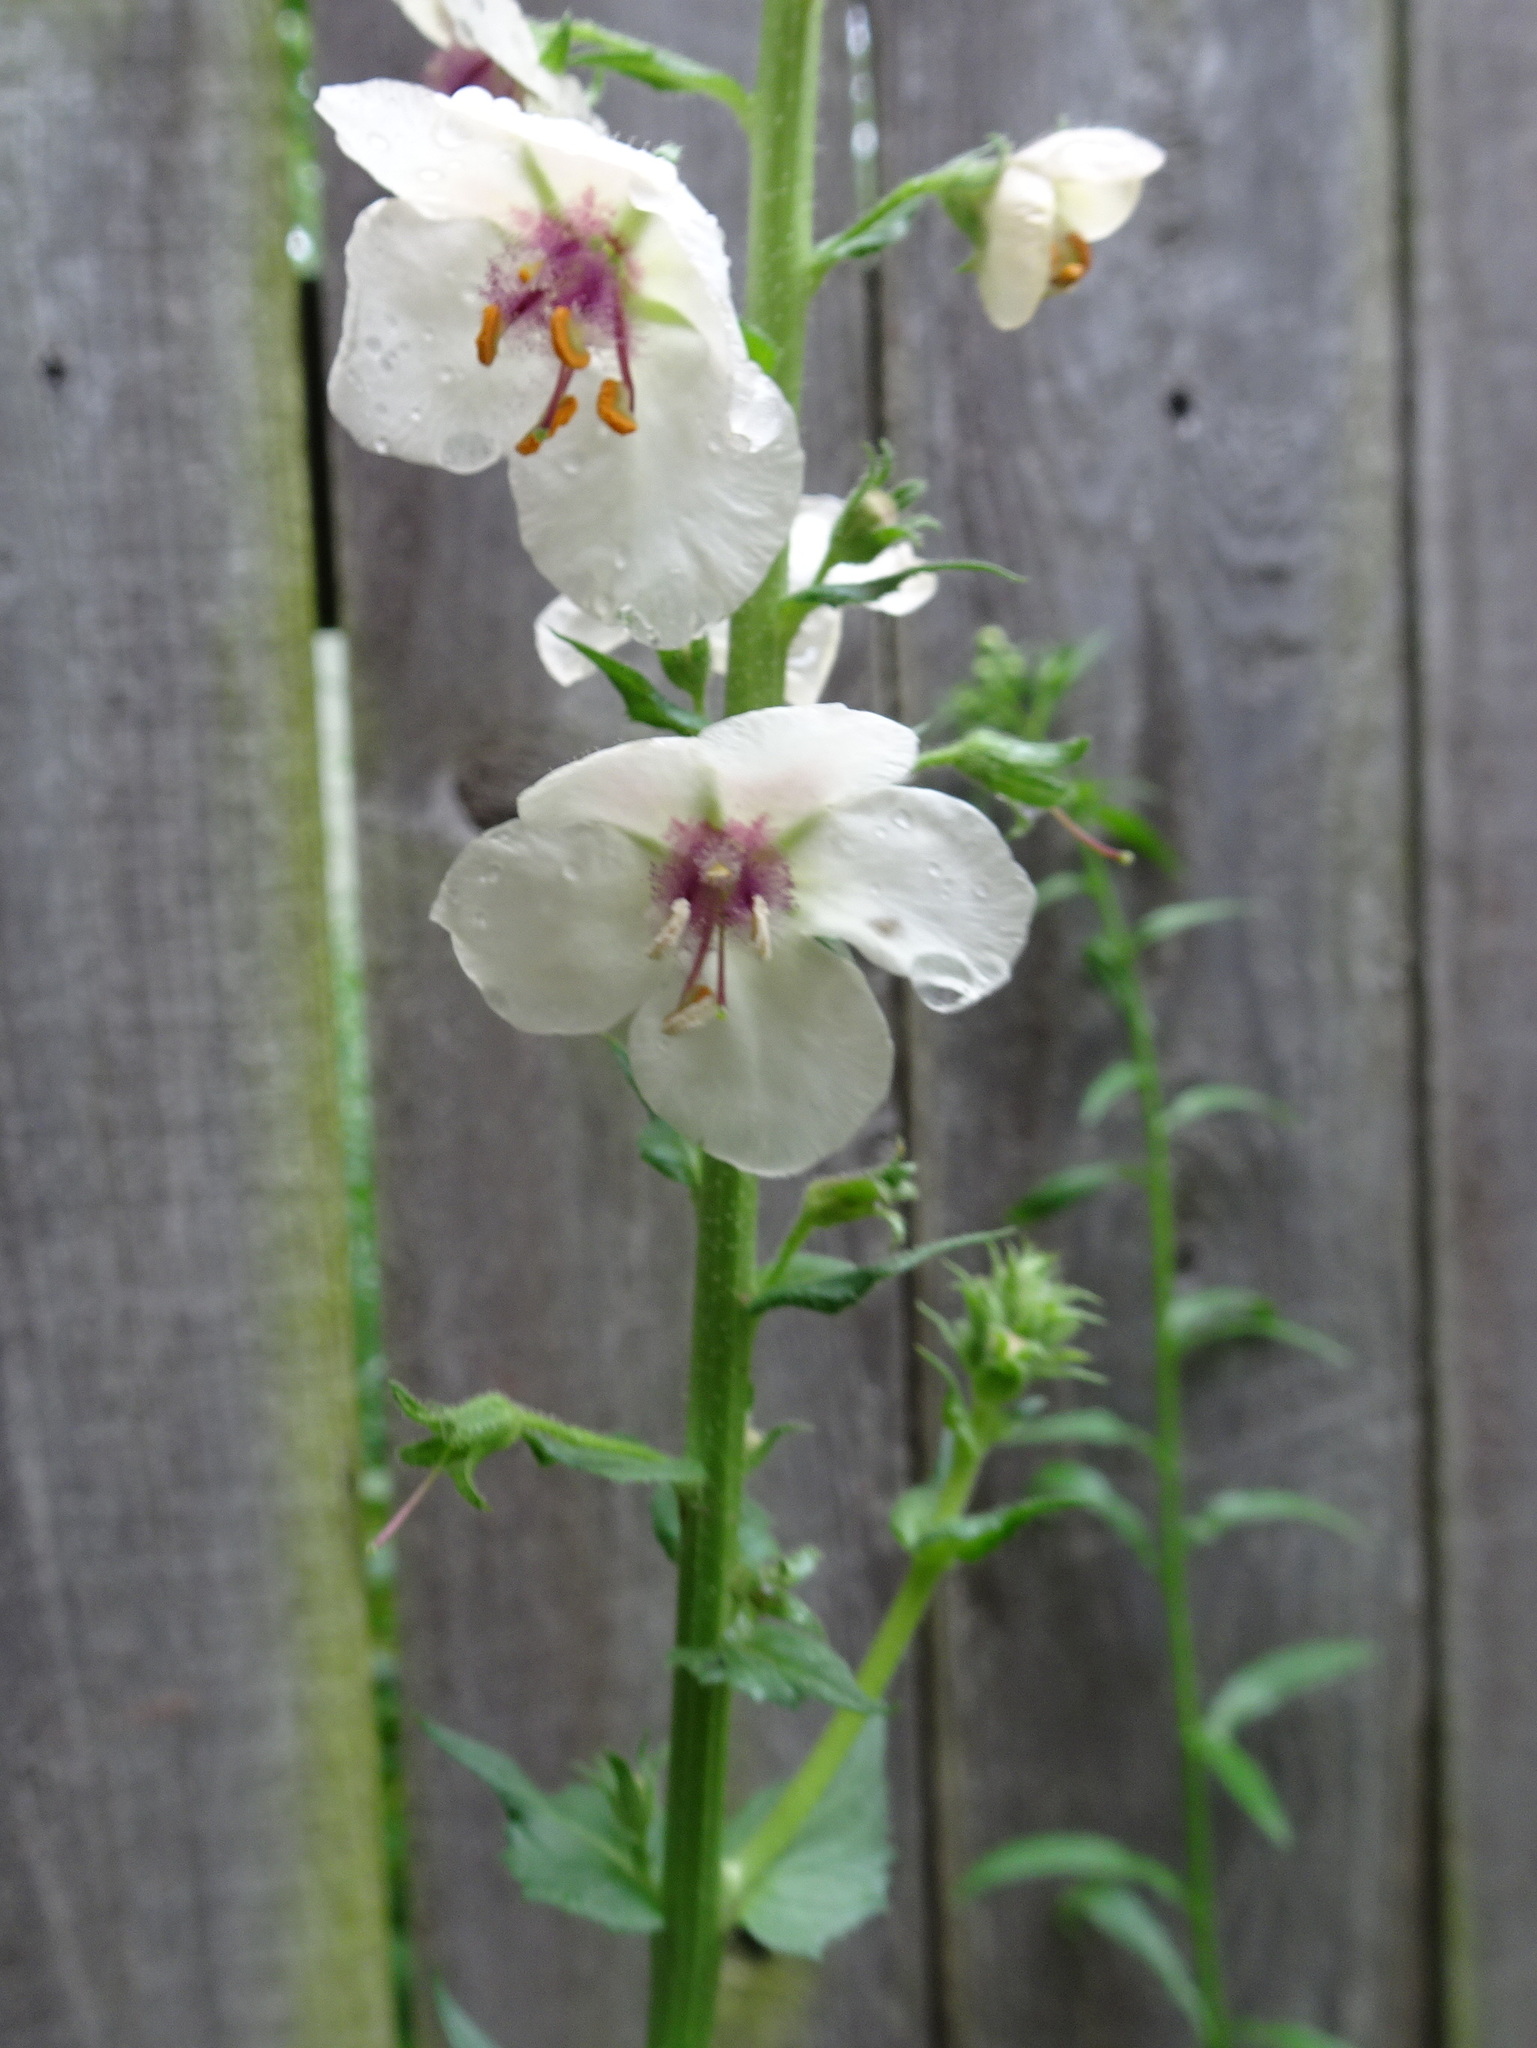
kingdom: Plantae
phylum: Tracheophyta
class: Magnoliopsida
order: Lamiales
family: Scrophulariaceae
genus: Verbascum
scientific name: Verbascum blattaria
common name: Moth mullein
